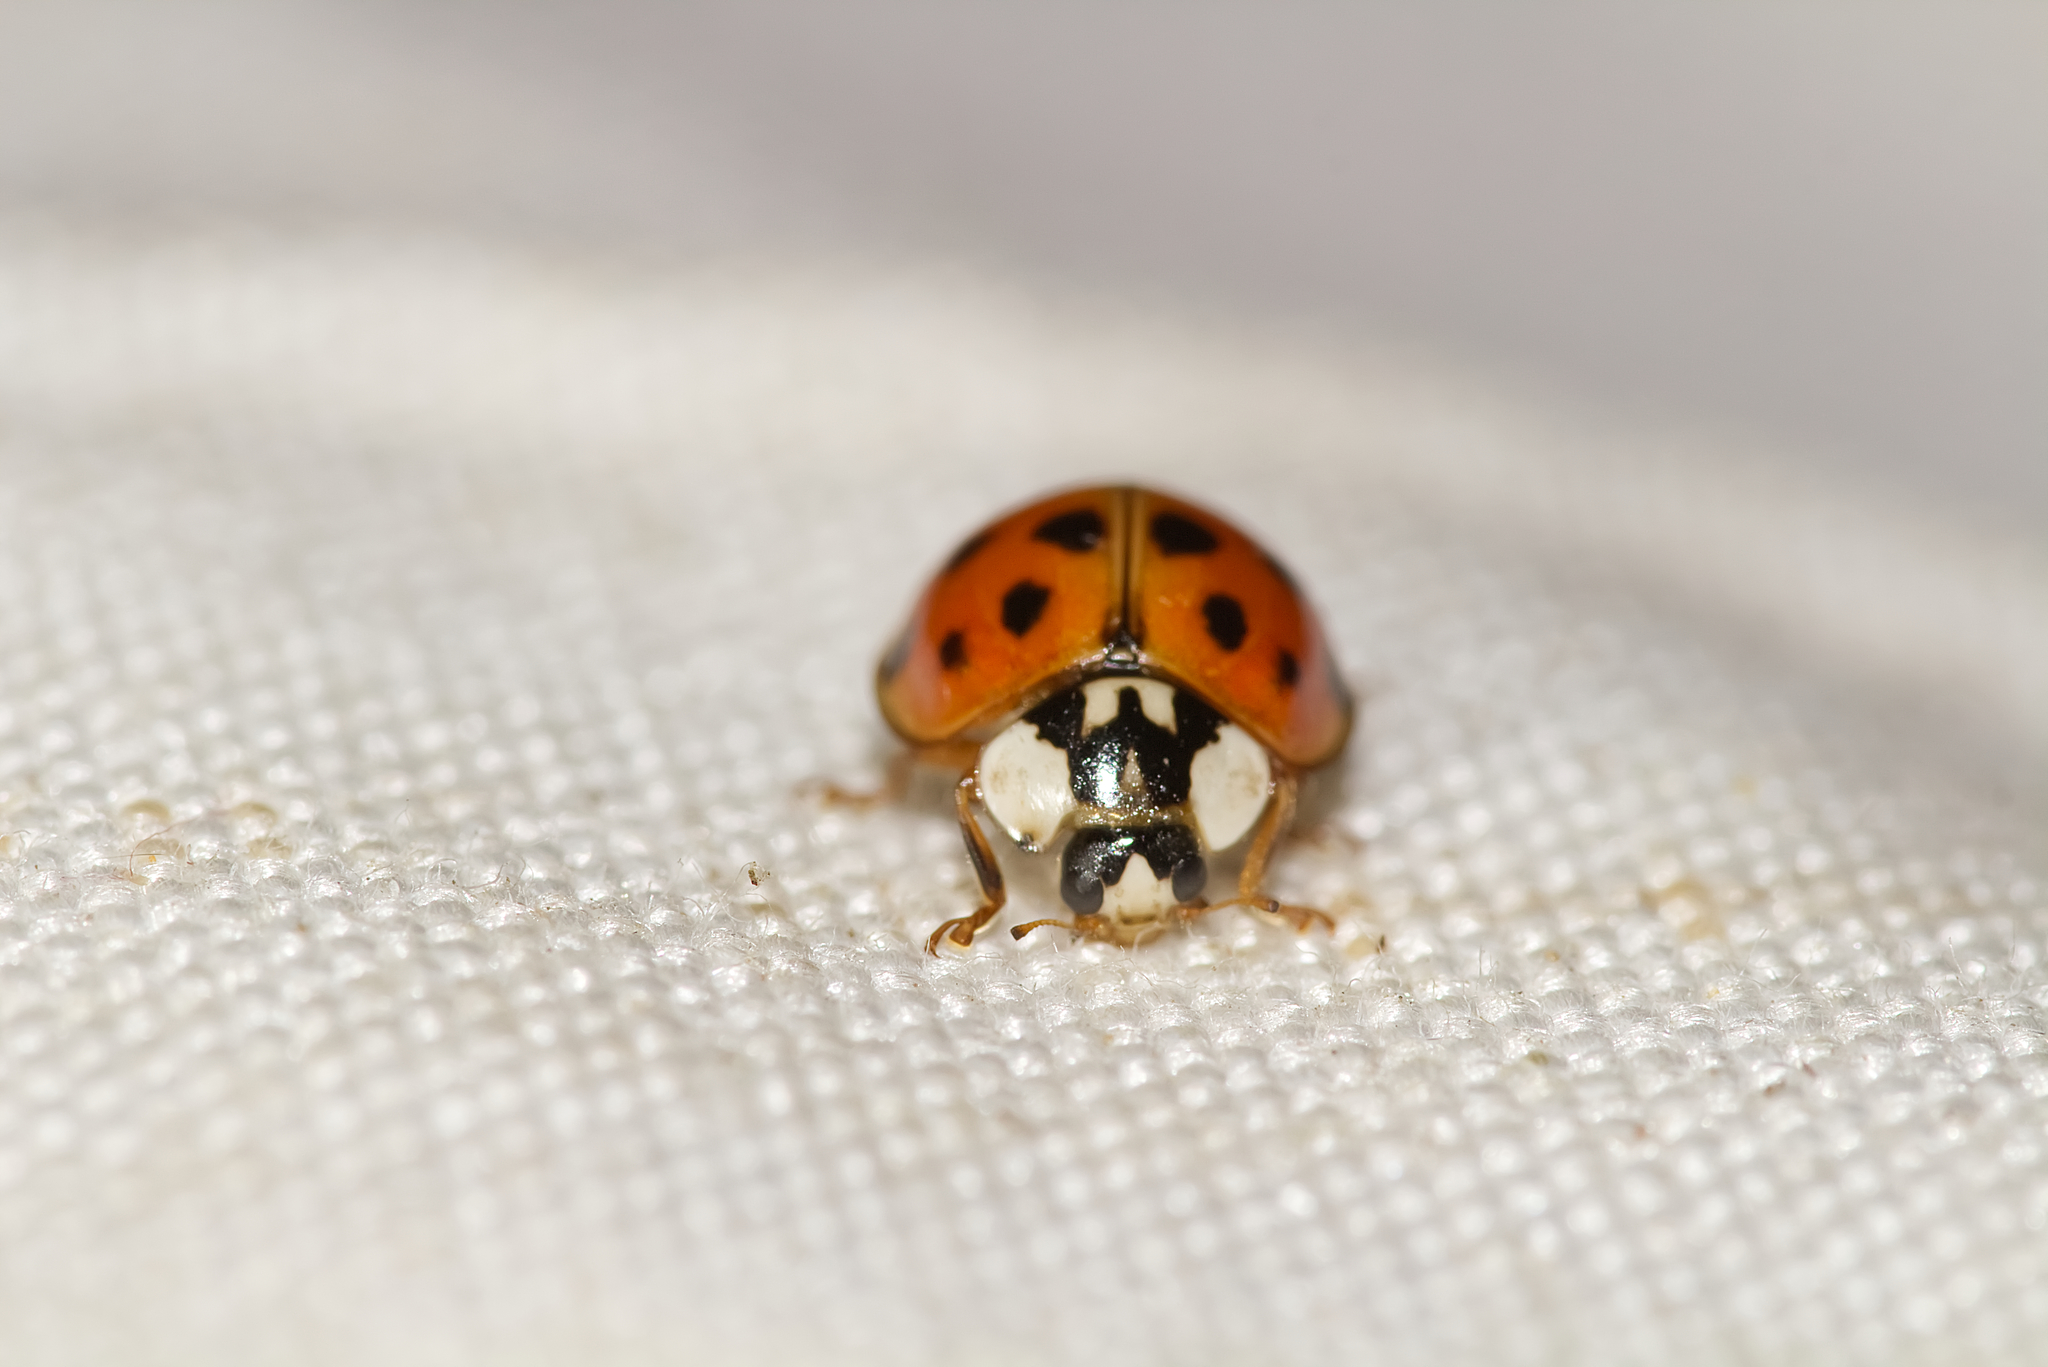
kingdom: Animalia
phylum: Arthropoda
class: Insecta
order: Coleoptera
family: Coccinellidae
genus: Harmonia
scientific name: Harmonia axyridis
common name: Harlequin ladybird
